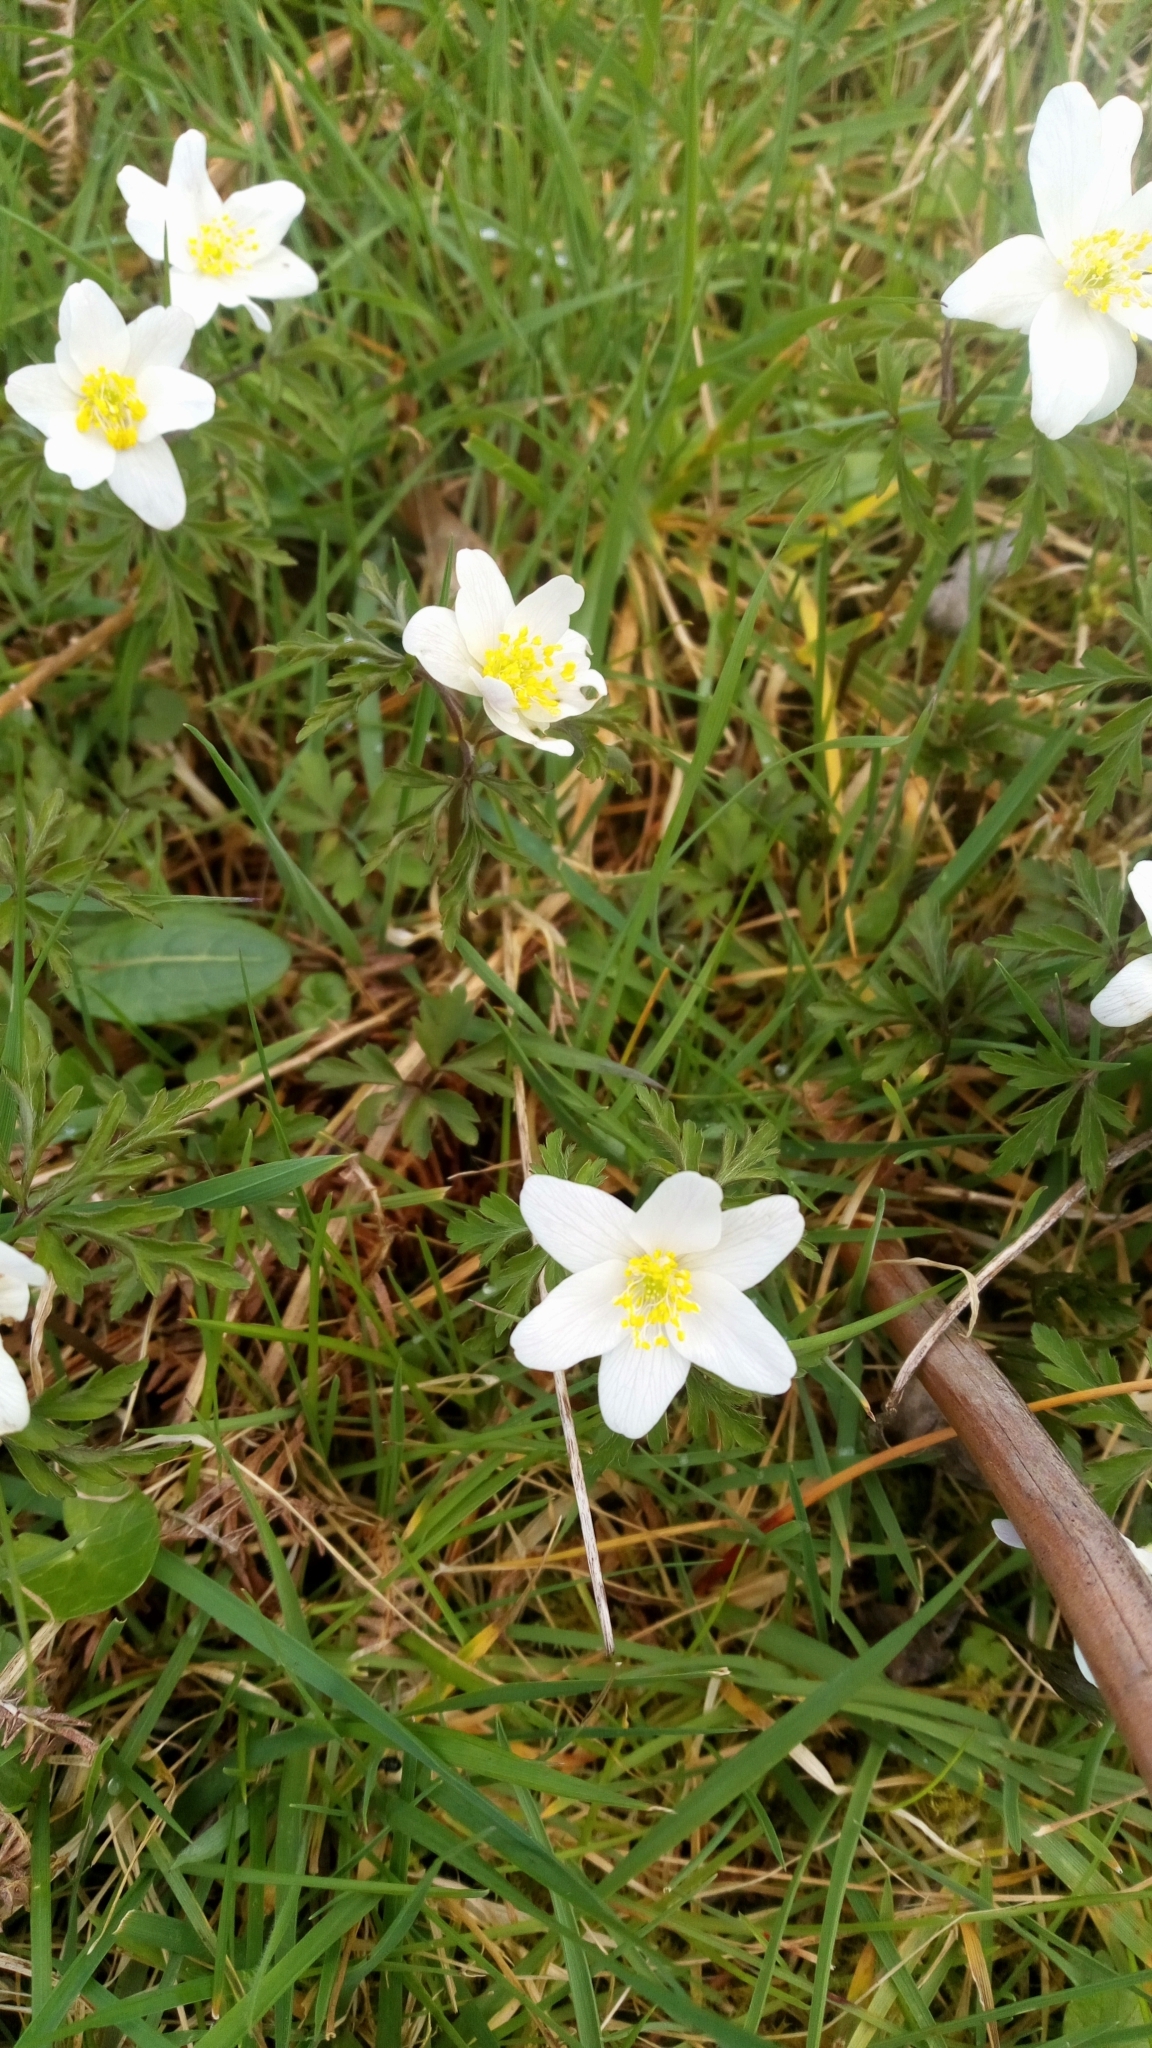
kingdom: Plantae
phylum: Tracheophyta
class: Magnoliopsida
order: Ranunculales
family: Ranunculaceae
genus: Anemone
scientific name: Anemone nemorosa
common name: Wood anemone
